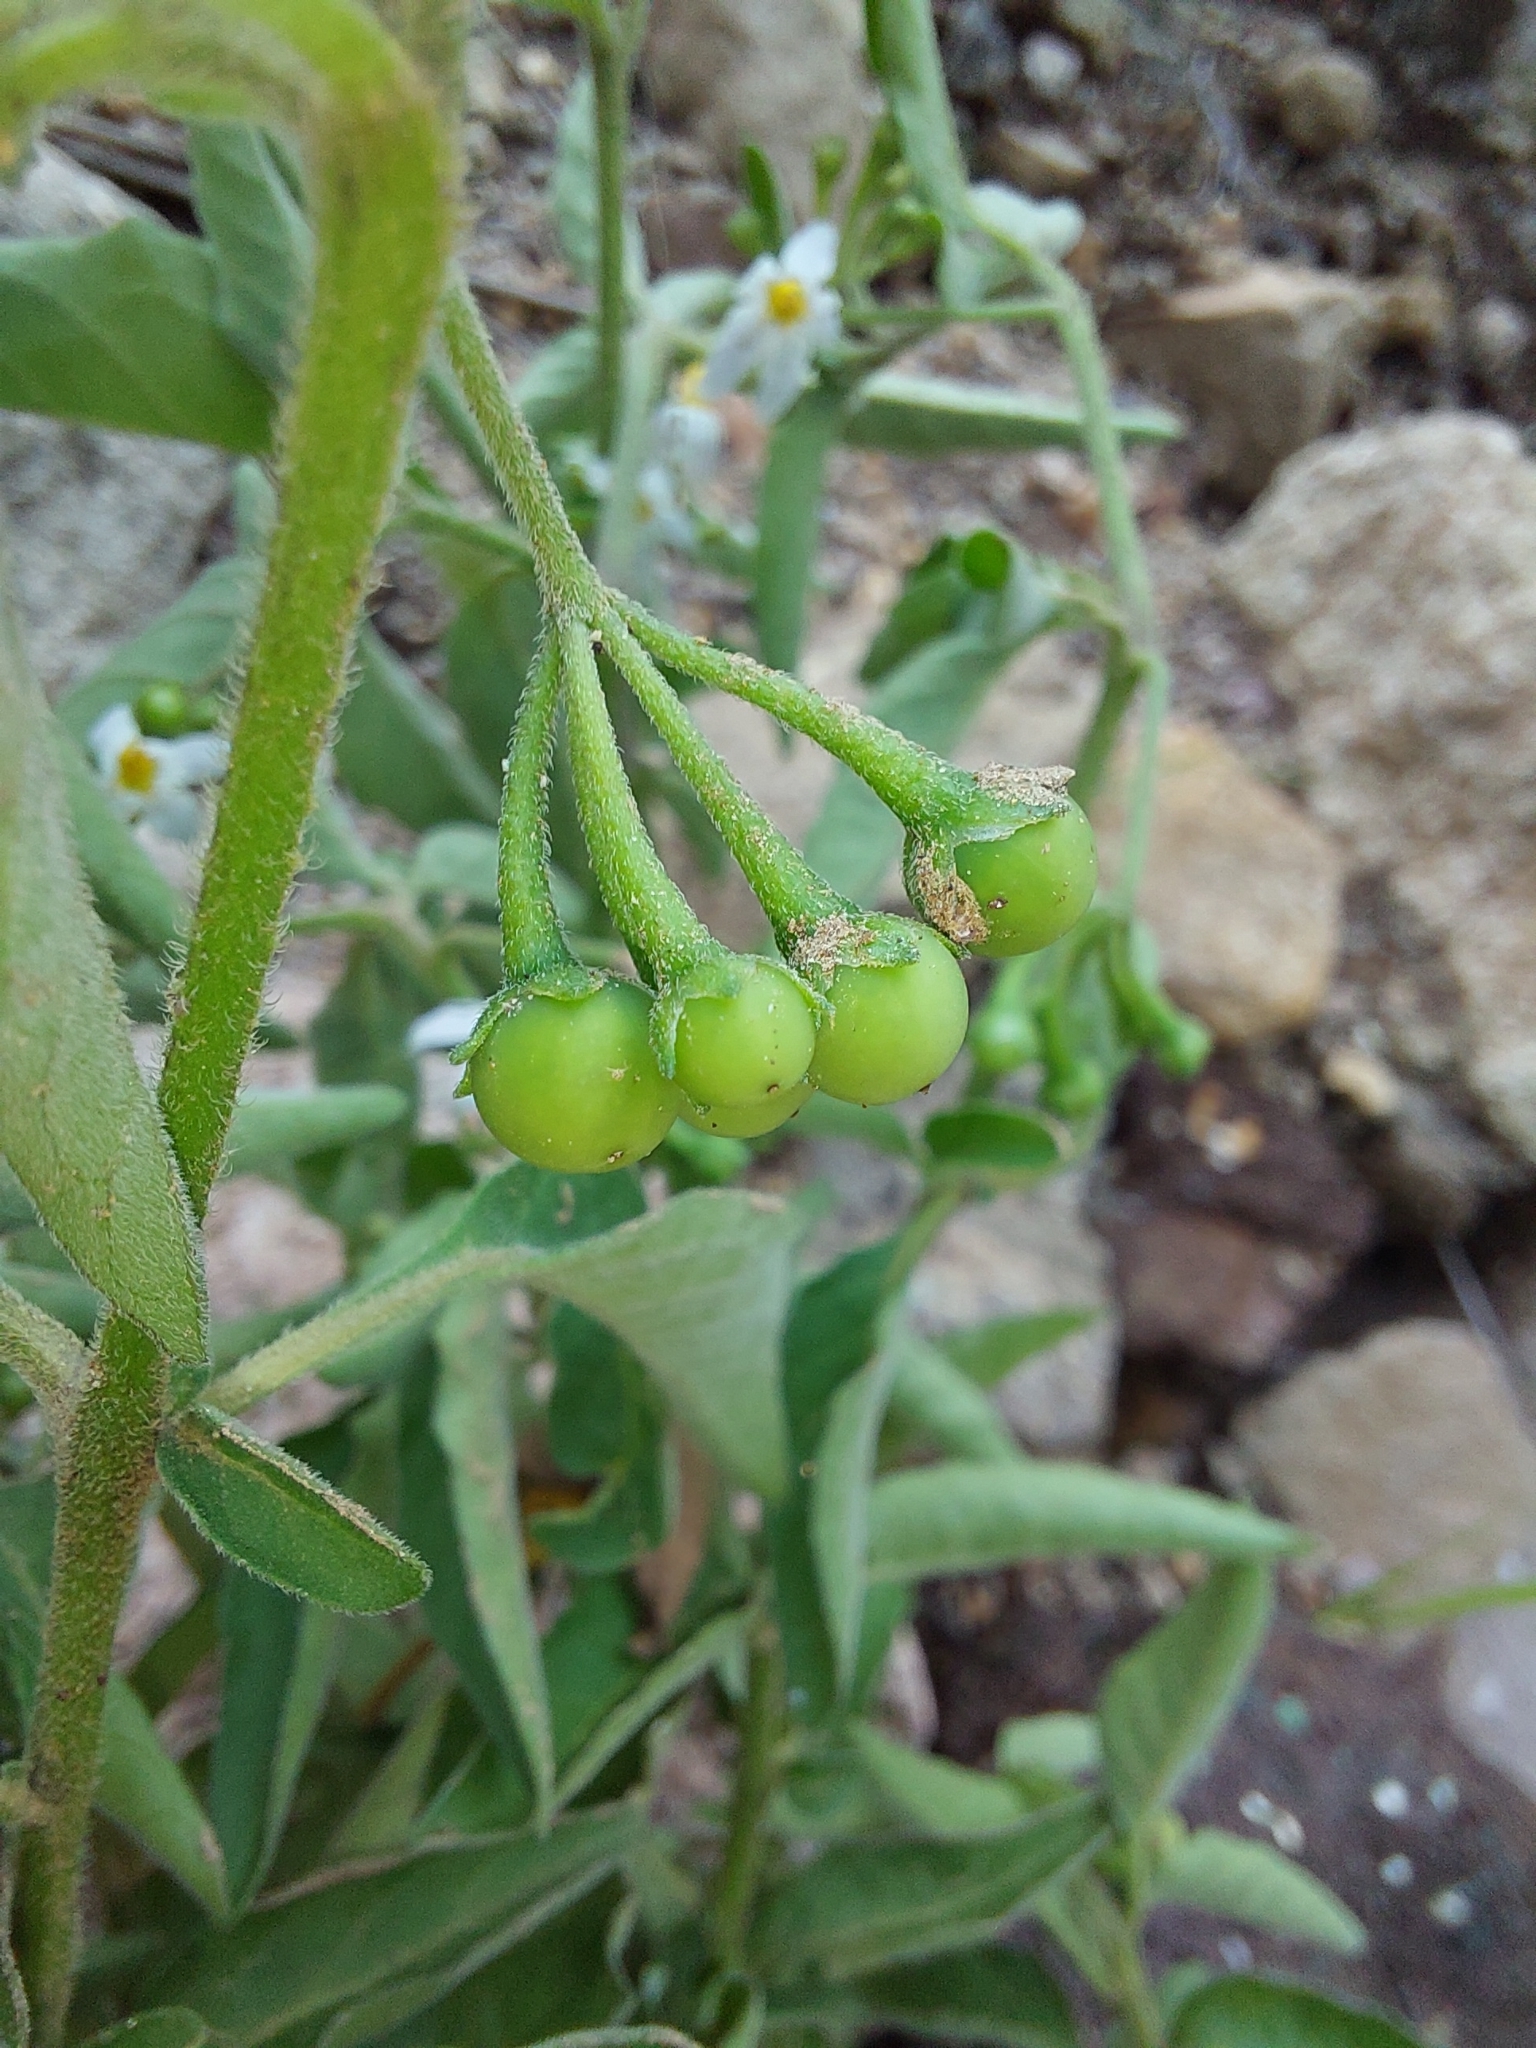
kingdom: Plantae
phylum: Tracheophyta
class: Magnoliopsida
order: Solanales
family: Solanaceae
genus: Solanum
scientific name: Solanum chenopodioides
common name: Tall nightshade
